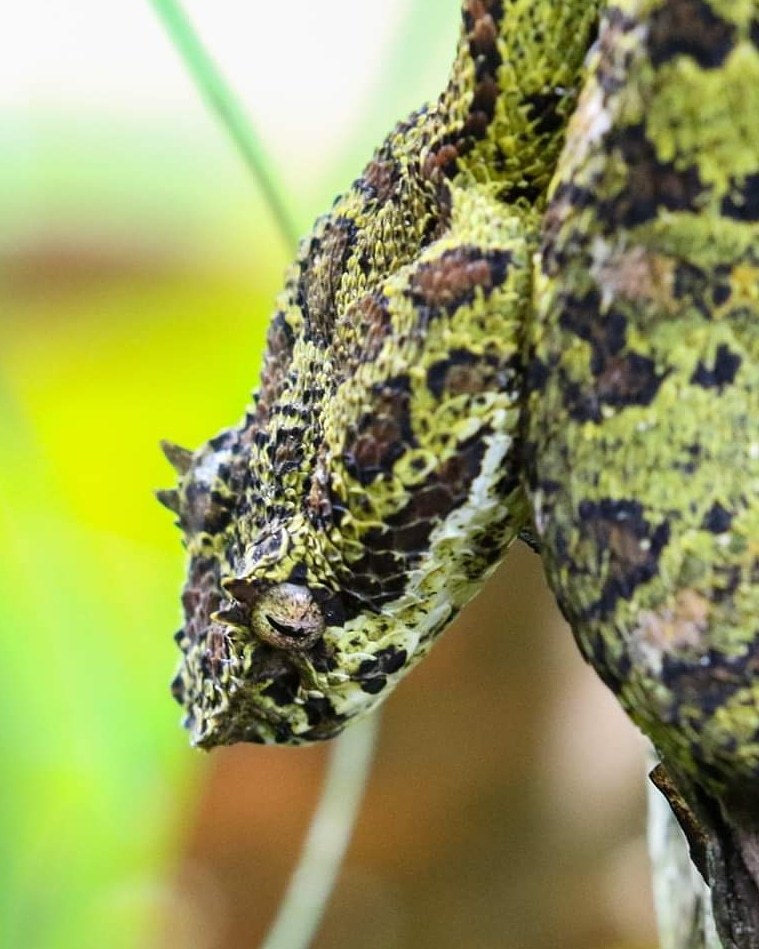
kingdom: Animalia
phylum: Chordata
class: Squamata
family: Viperidae
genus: Bothriechis
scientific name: Bothriechis schlegelii
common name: Eyelash viper
